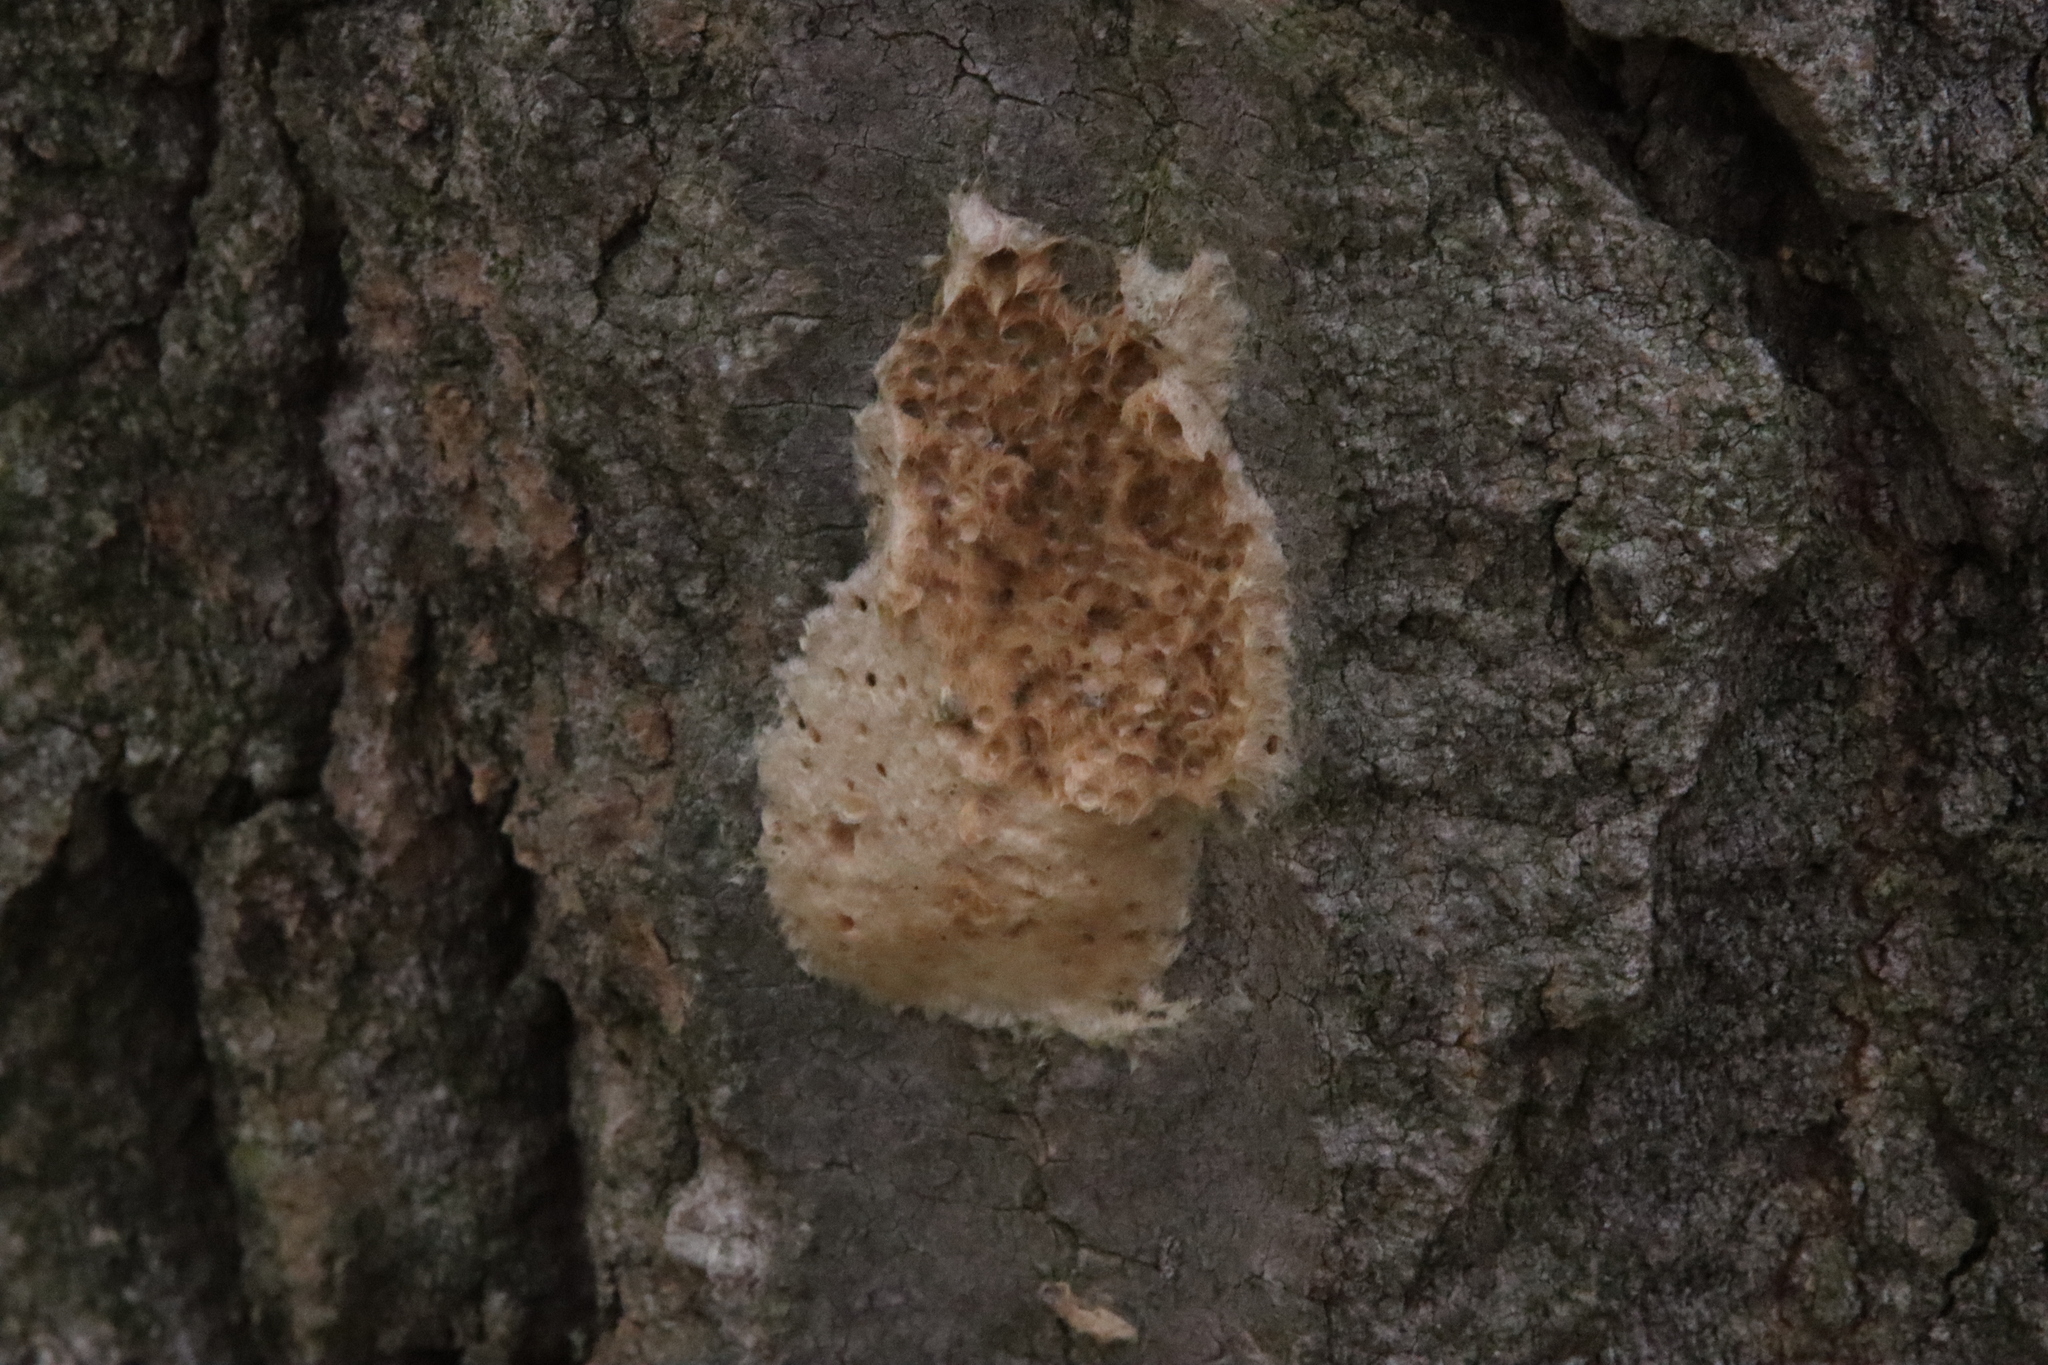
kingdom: Animalia
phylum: Arthropoda
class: Insecta
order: Lepidoptera
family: Erebidae
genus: Lymantria
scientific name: Lymantria dispar
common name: Gypsy moth
